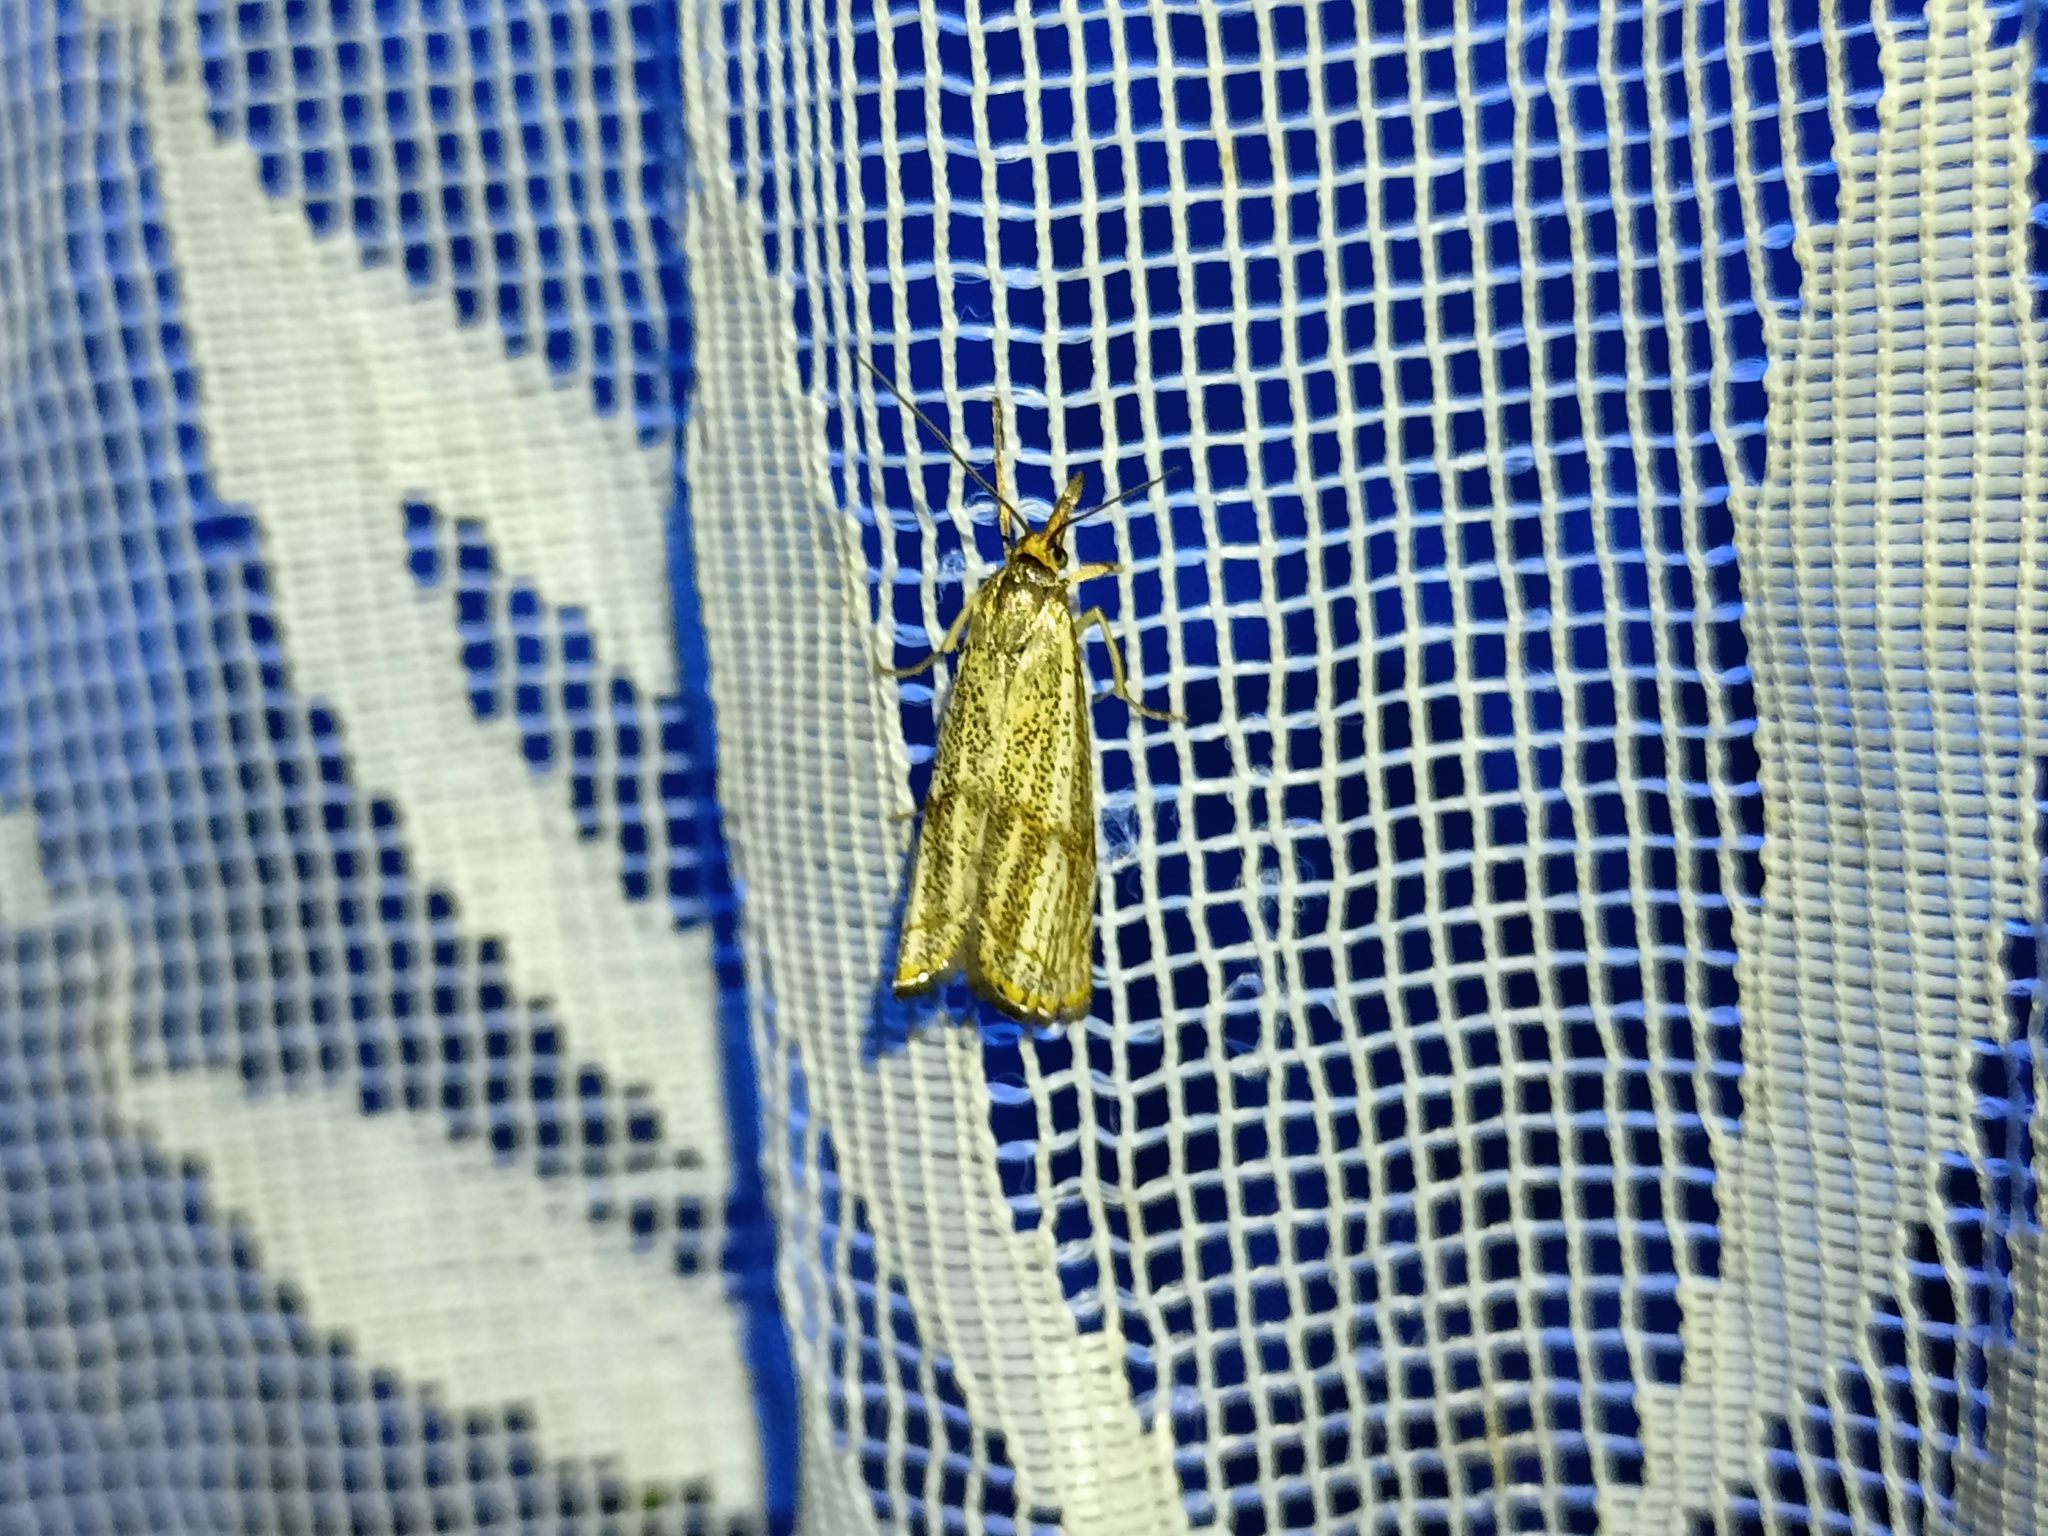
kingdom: Animalia
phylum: Arthropoda
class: Insecta
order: Lepidoptera
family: Crambidae
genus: Thisanotia
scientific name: Thisanotia chrysonuchella
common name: Powdered grass-veneer
